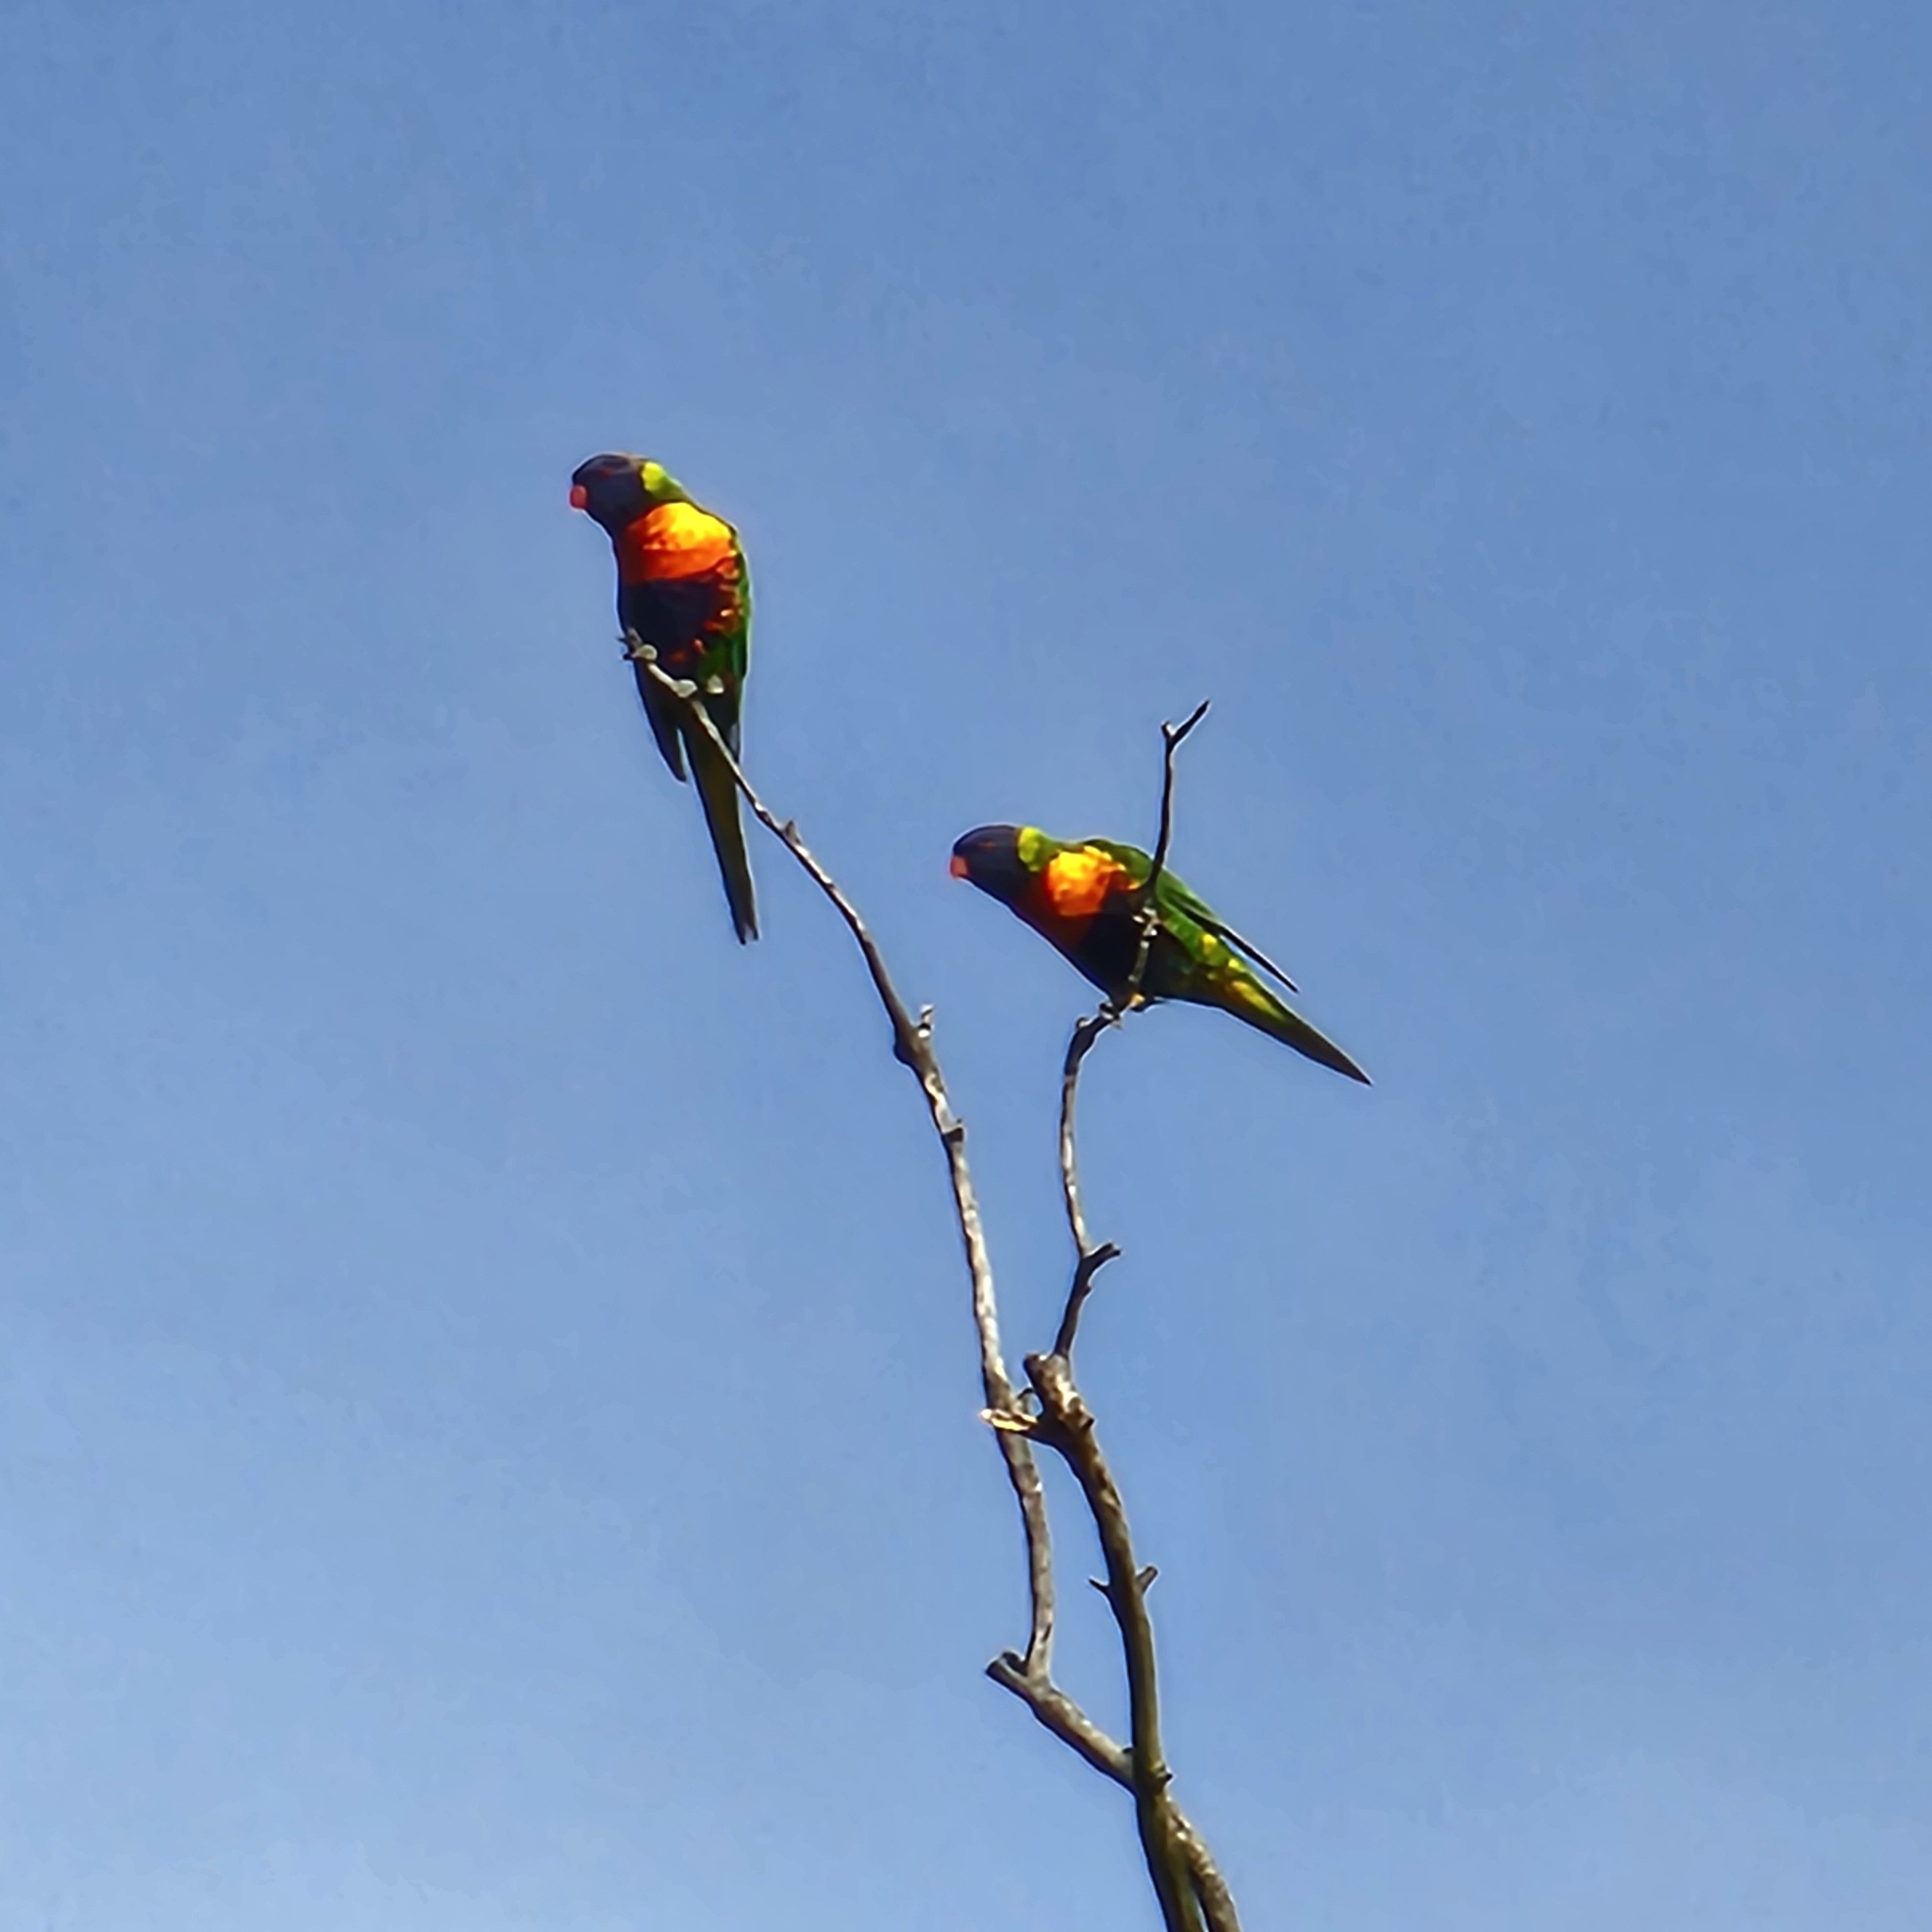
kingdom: Animalia
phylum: Chordata
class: Aves
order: Psittaciformes
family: Psittacidae
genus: Trichoglossus
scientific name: Trichoglossus haematodus
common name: Coconut lorikeet
